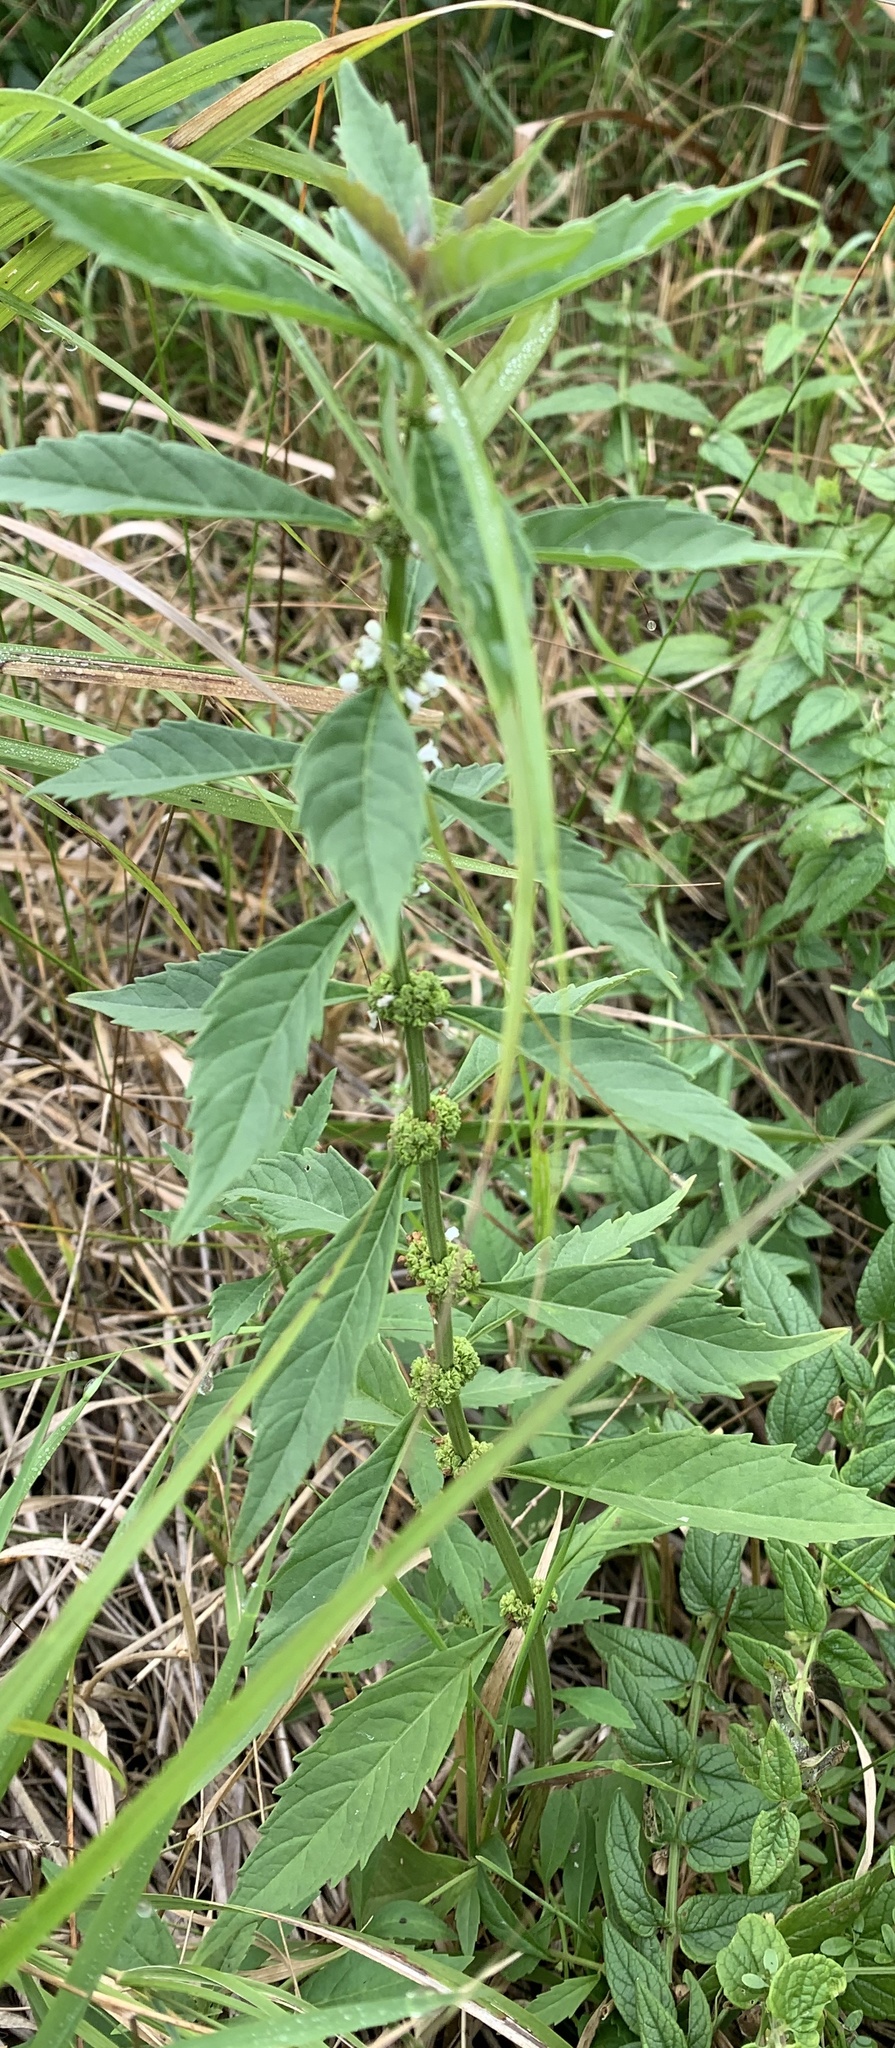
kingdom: Plantae
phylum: Tracheophyta
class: Magnoliopsida
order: Lamiales
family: Lamiaceae
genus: Lycopus
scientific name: Lycopus uniflorus
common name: Northern bugleweed
